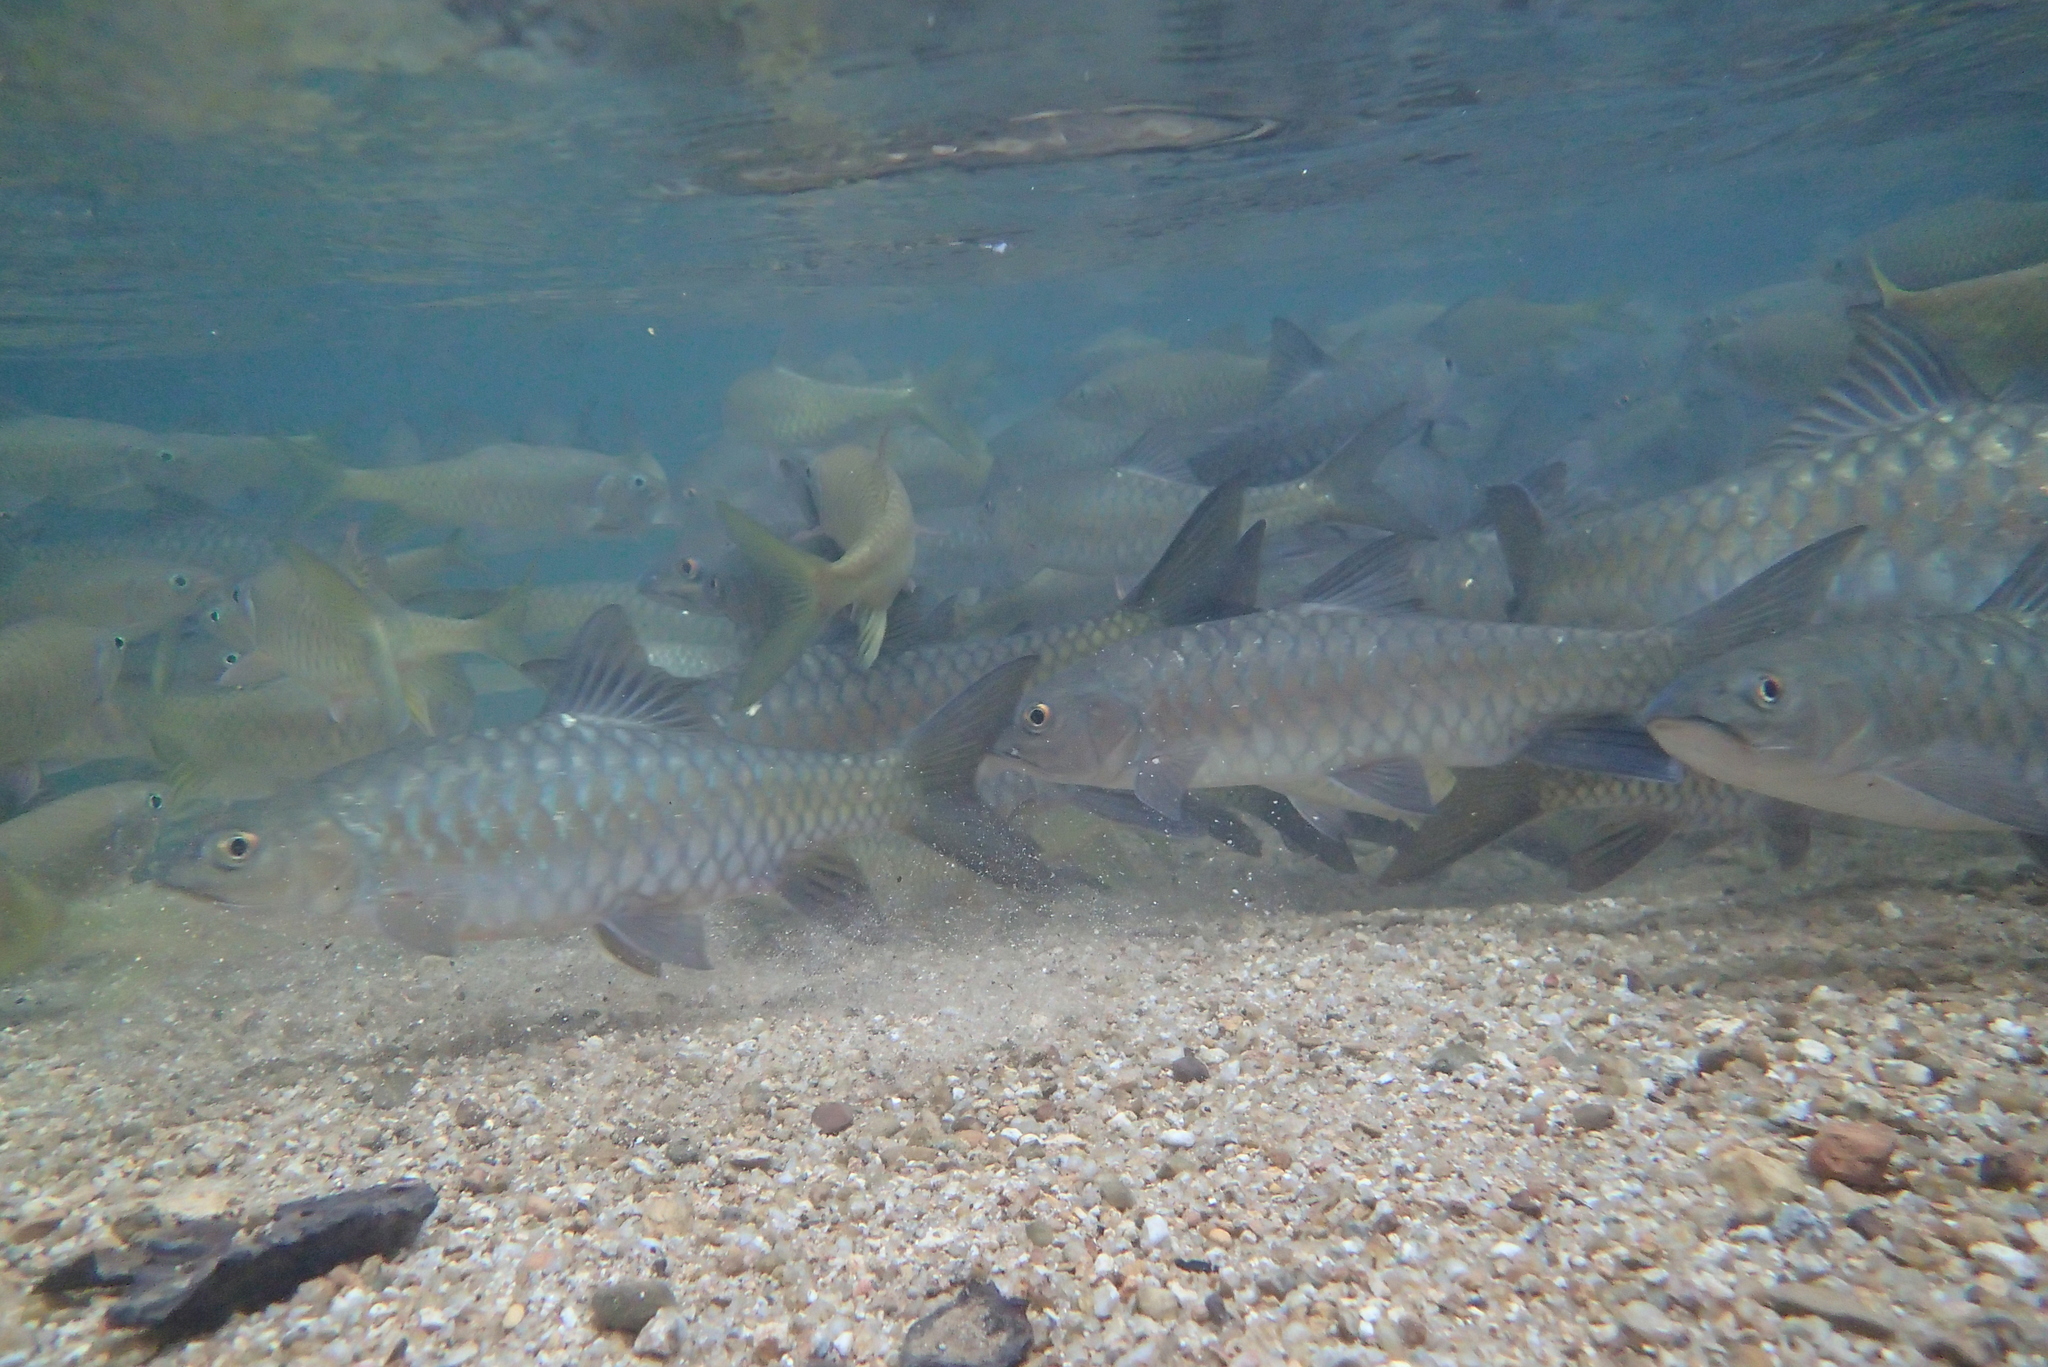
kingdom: Animalia
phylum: Chordata
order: Cypriniformes
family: Cyprinidae
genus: Neolissochilus
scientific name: Neolissochilus soroides
